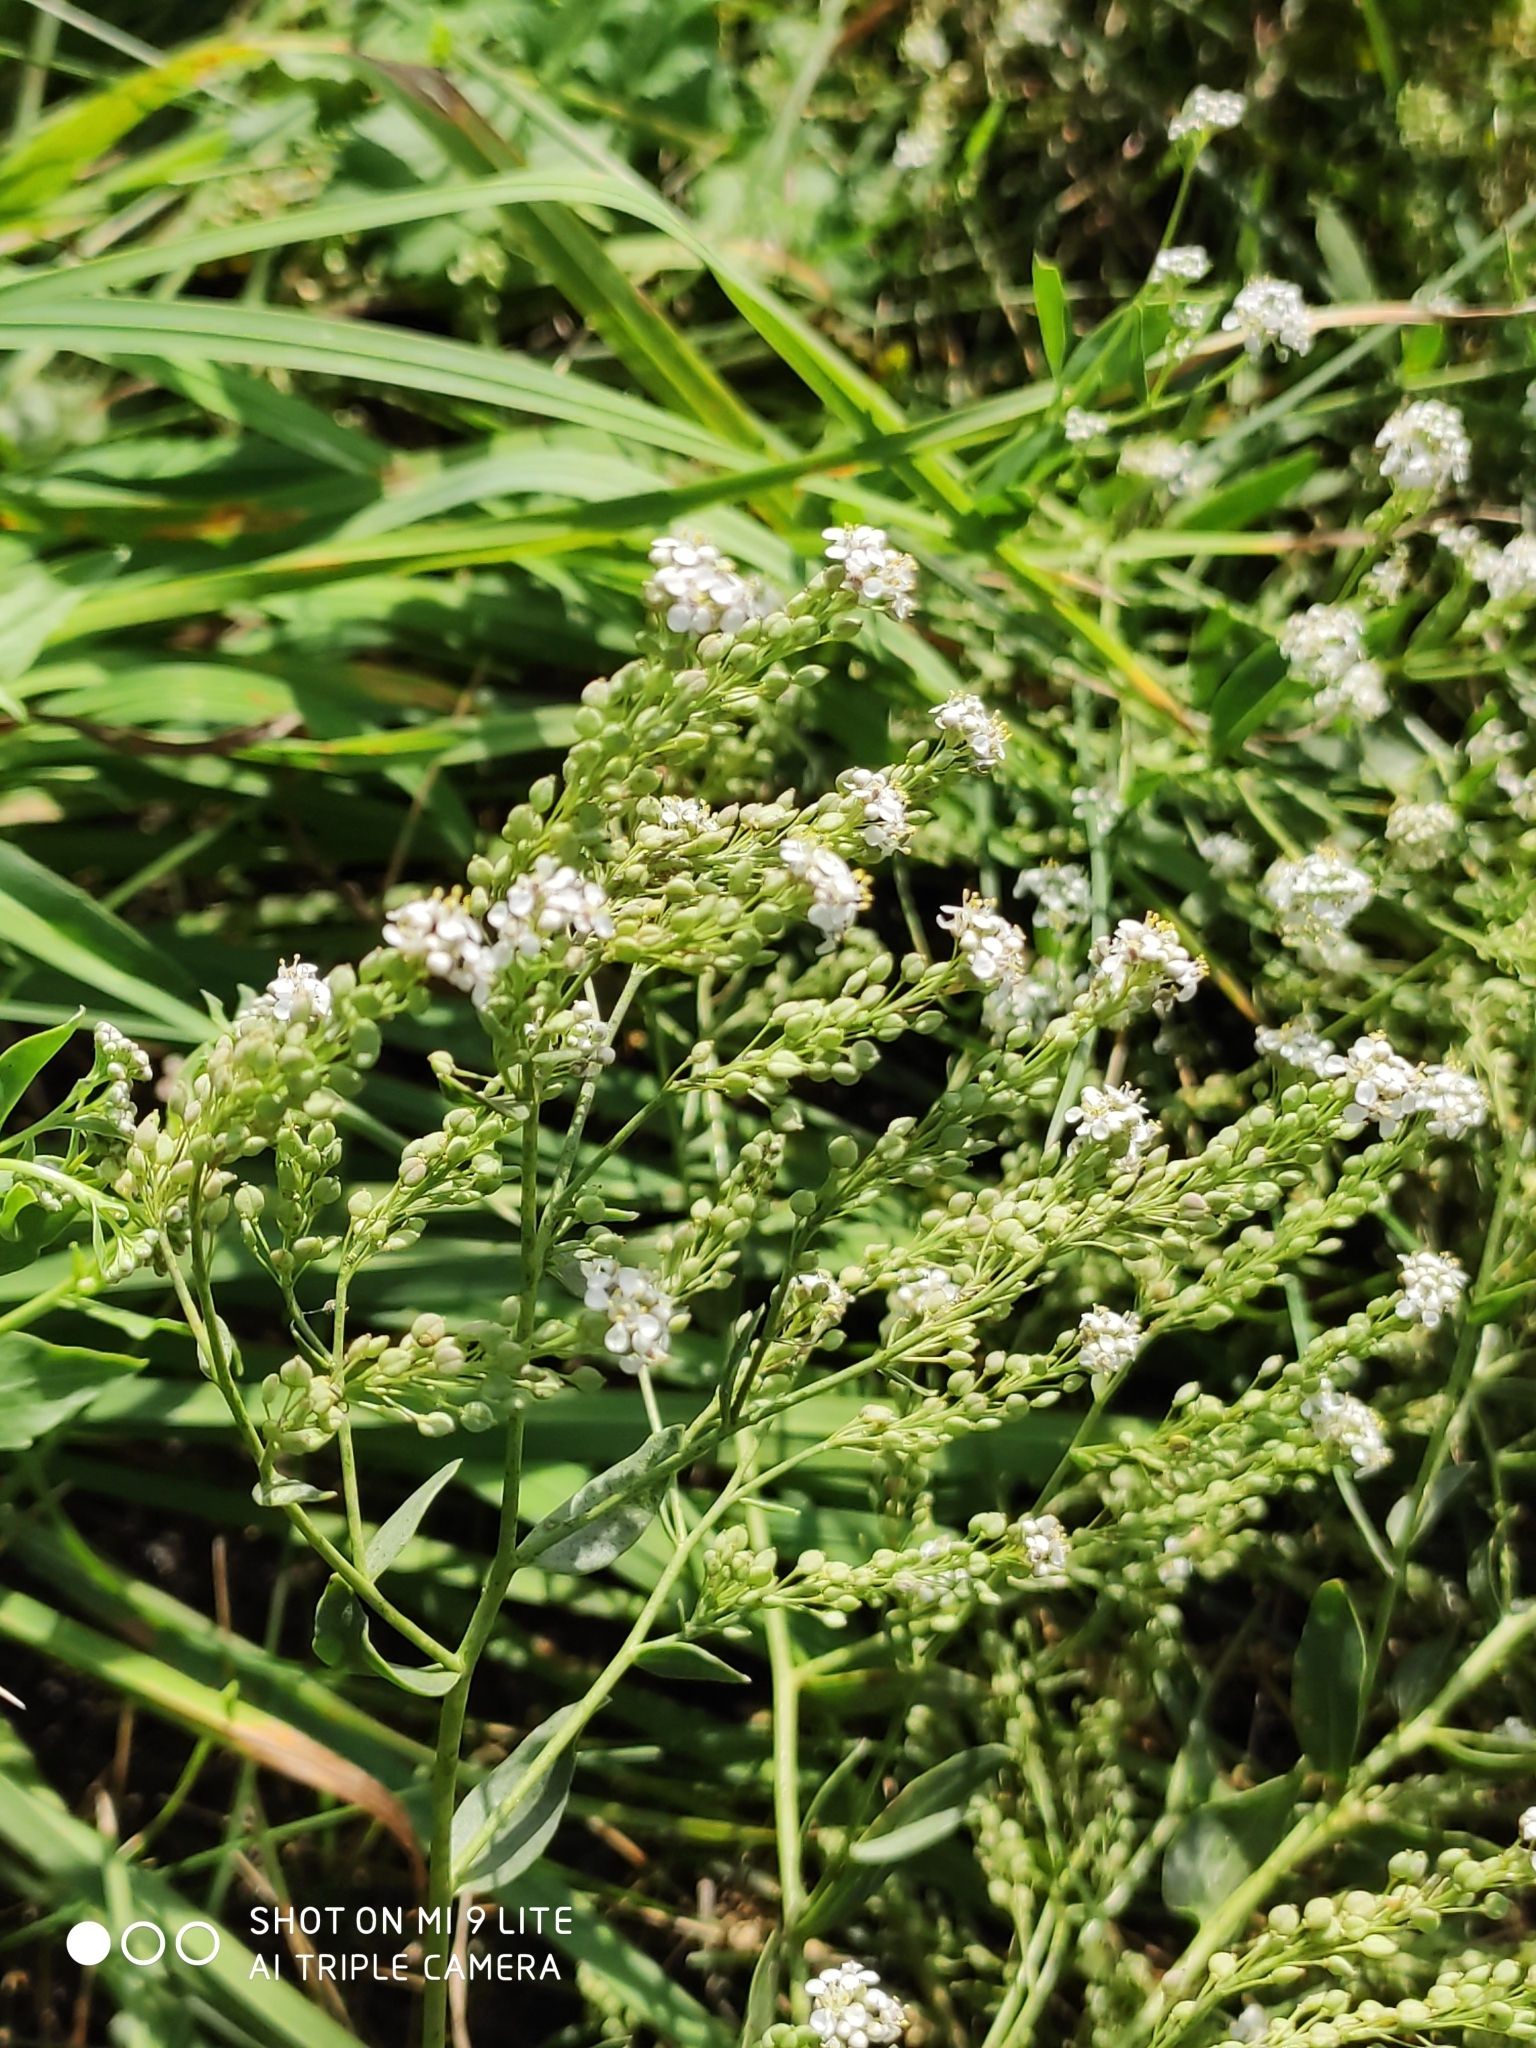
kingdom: Plantae
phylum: Tracheophyta
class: Magnoliopsida
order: Brassicales
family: Brassicaceae
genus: Lepidium
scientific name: Lepidium latifolium
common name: Dittander
